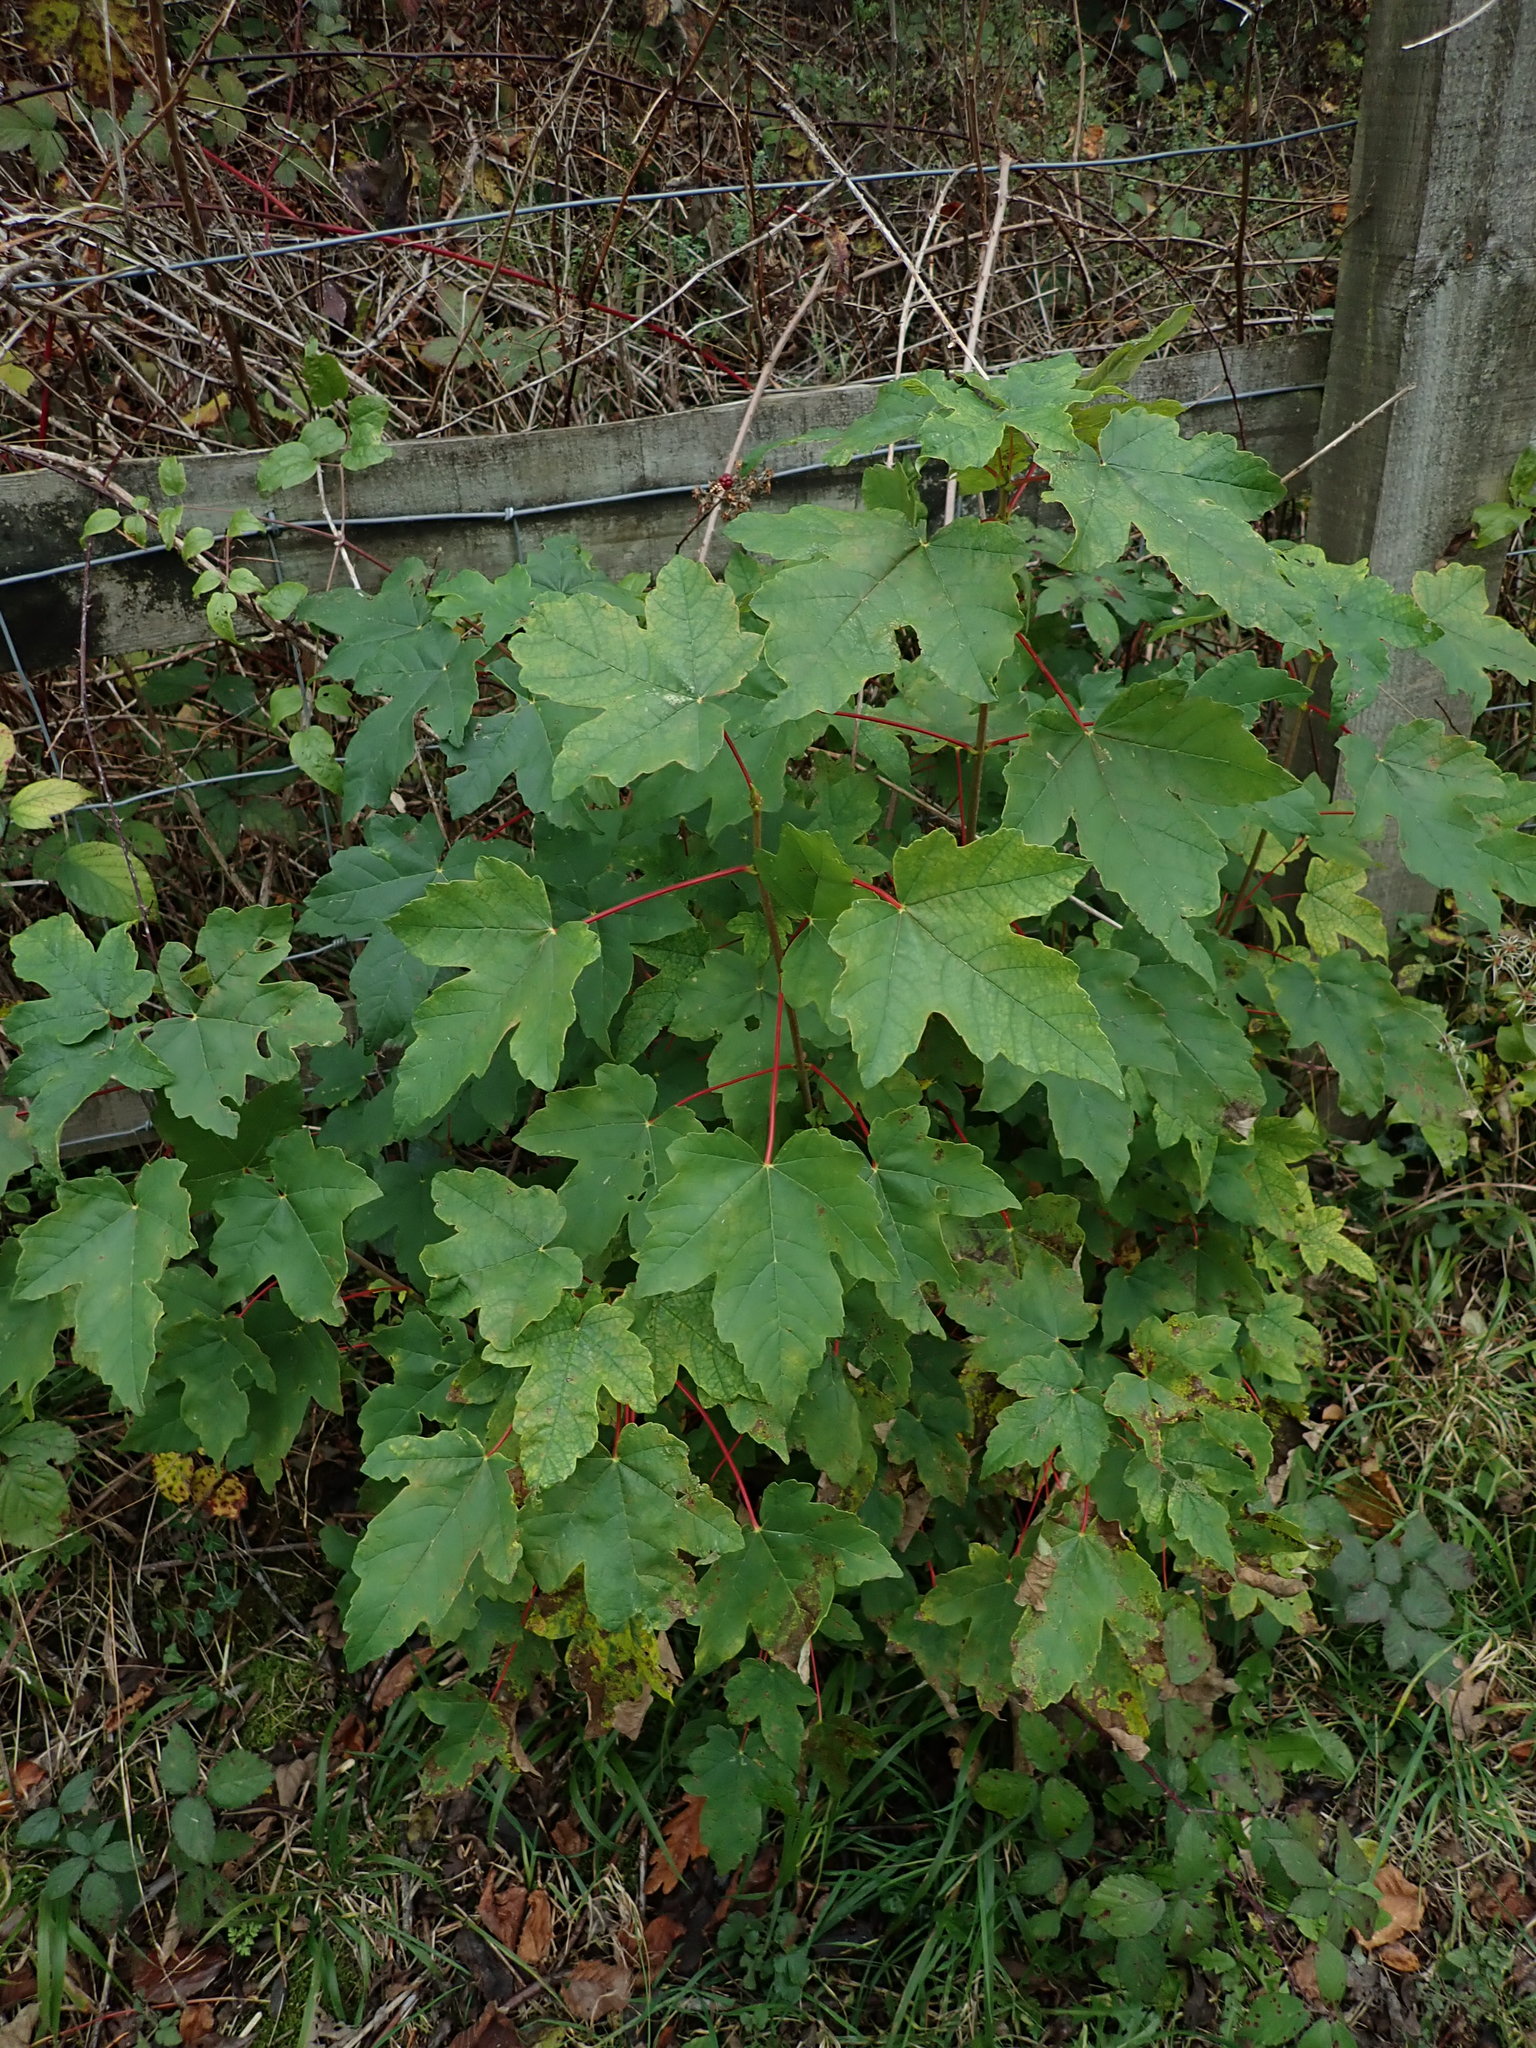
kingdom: Plantae
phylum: Tracheophyta
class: Magnoliopsida
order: Sapindales
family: Sapindaceae
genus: Acer
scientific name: Acer pseudoplatanus
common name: Sycamore
